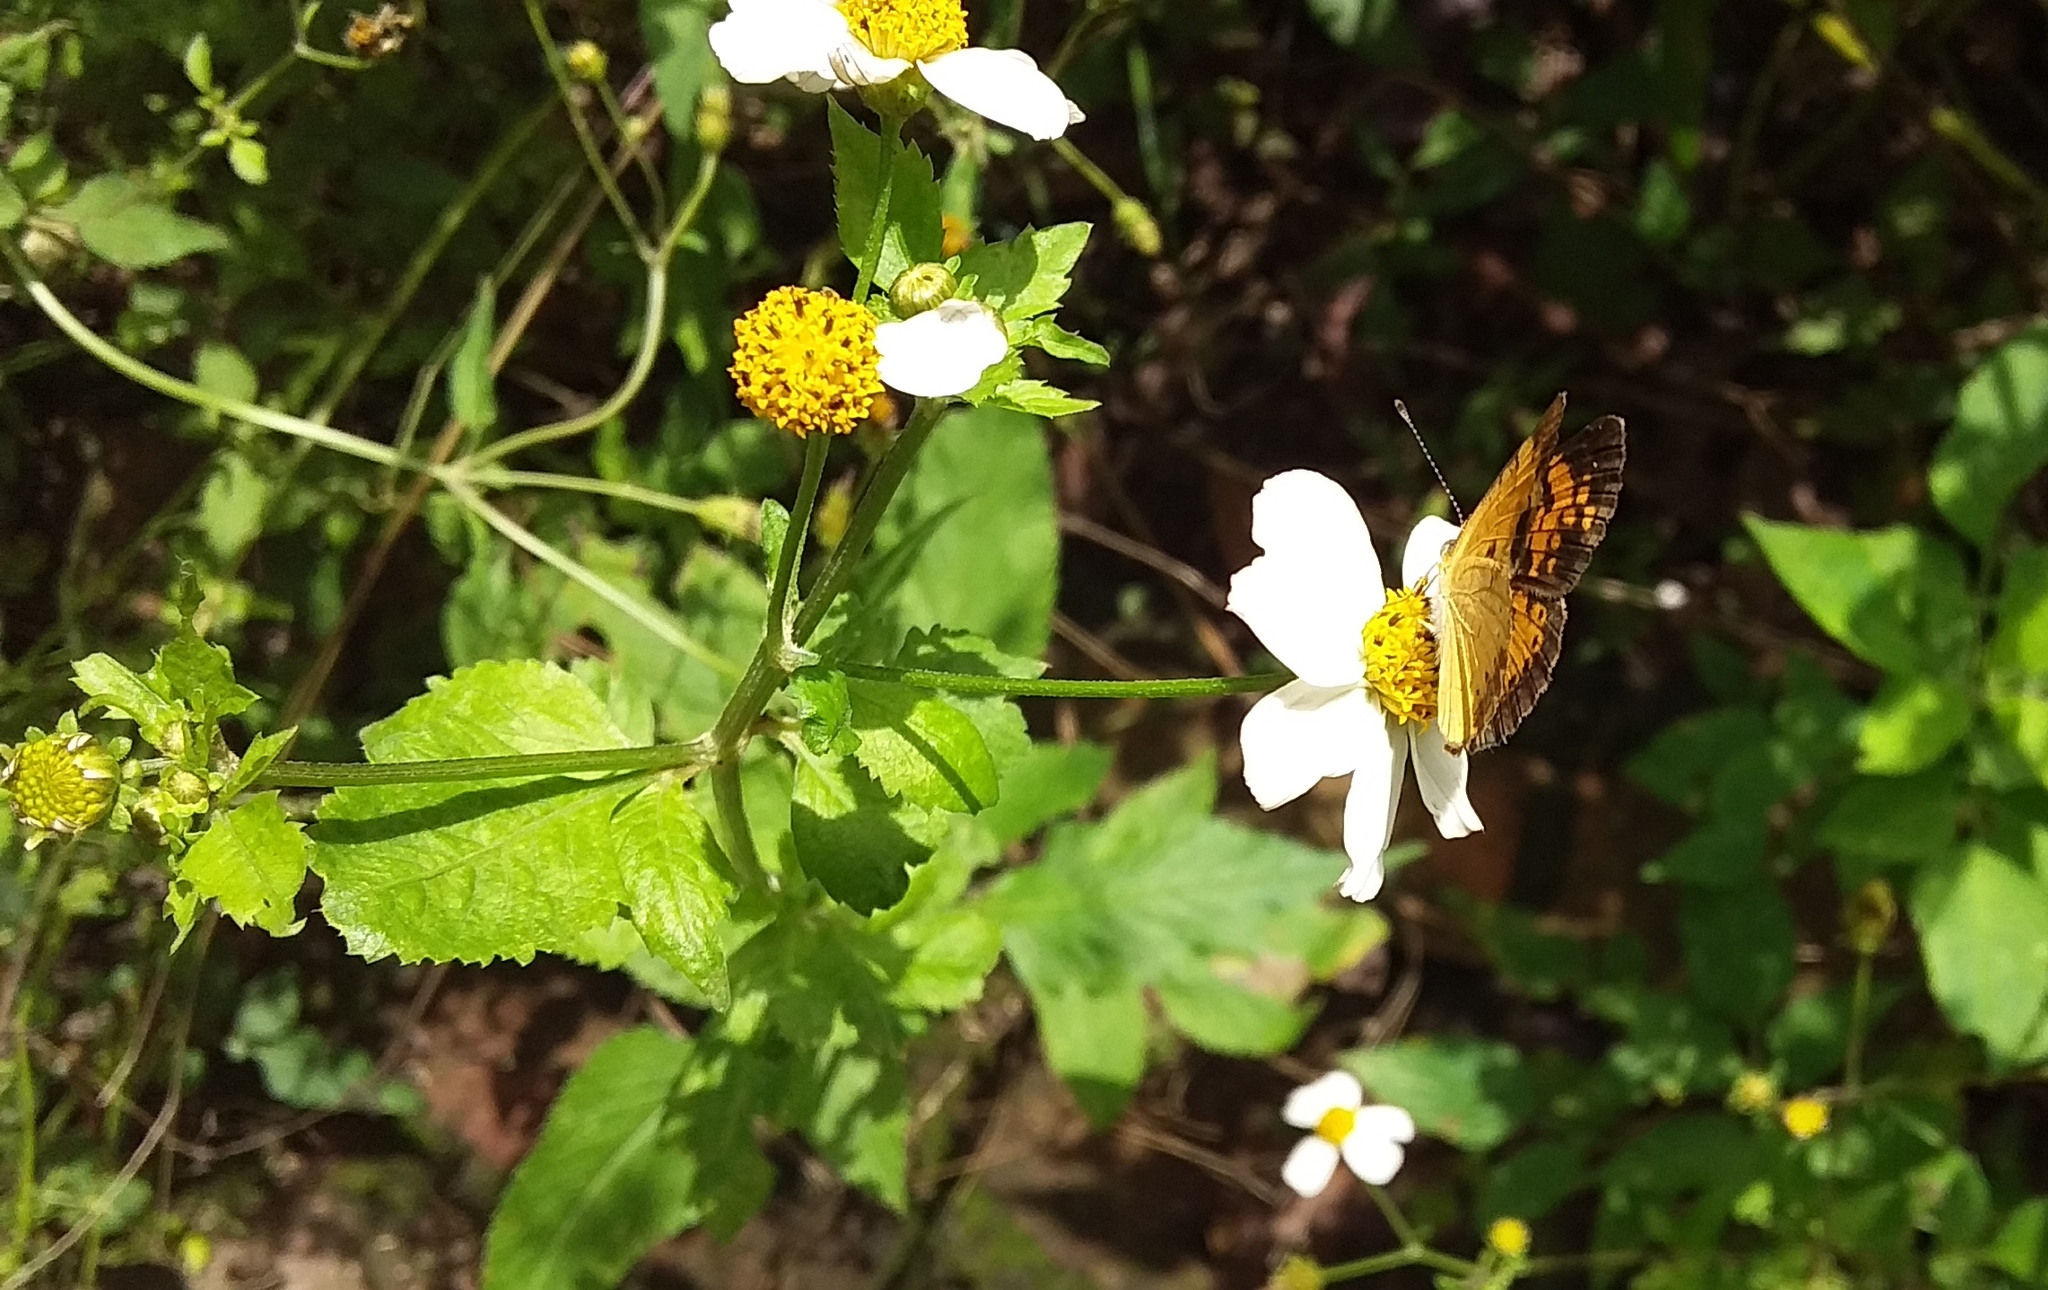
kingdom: Animalia
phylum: Arthropoda
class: Insecta
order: Lepidoptera
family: Nymphalidae
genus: Phyciodes
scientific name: Phyciodes tharos
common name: Pearl crescent
